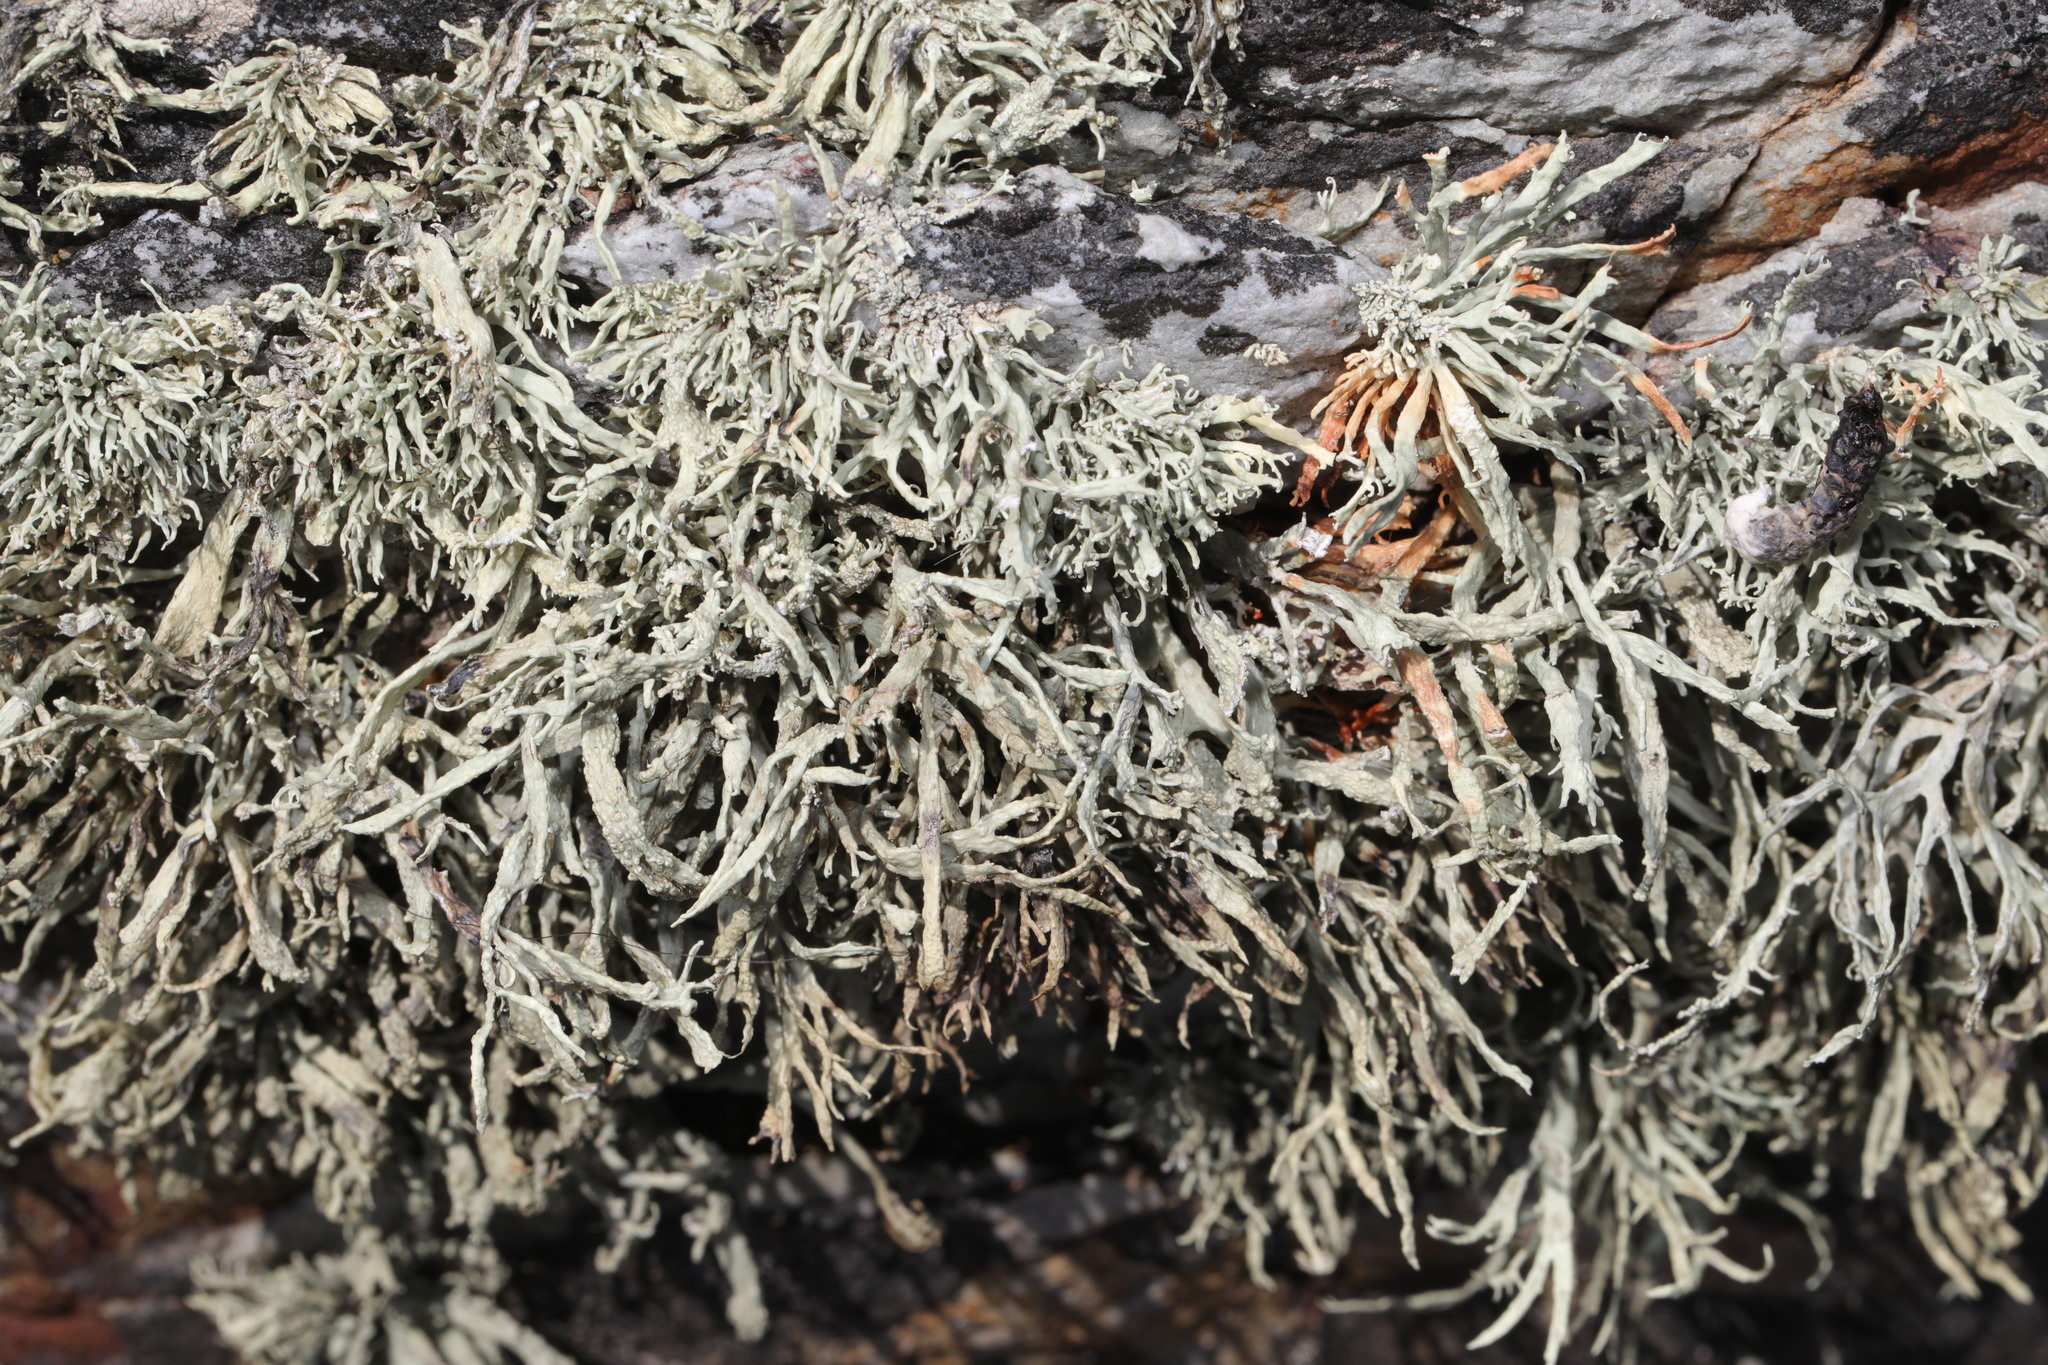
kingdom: Fungi
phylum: Ascomycota
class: Lecanoromycetes
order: Lecanorales
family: Ramalinaceae
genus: Ramalina
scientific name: Ramalina siliquosa
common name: Sea ivory
